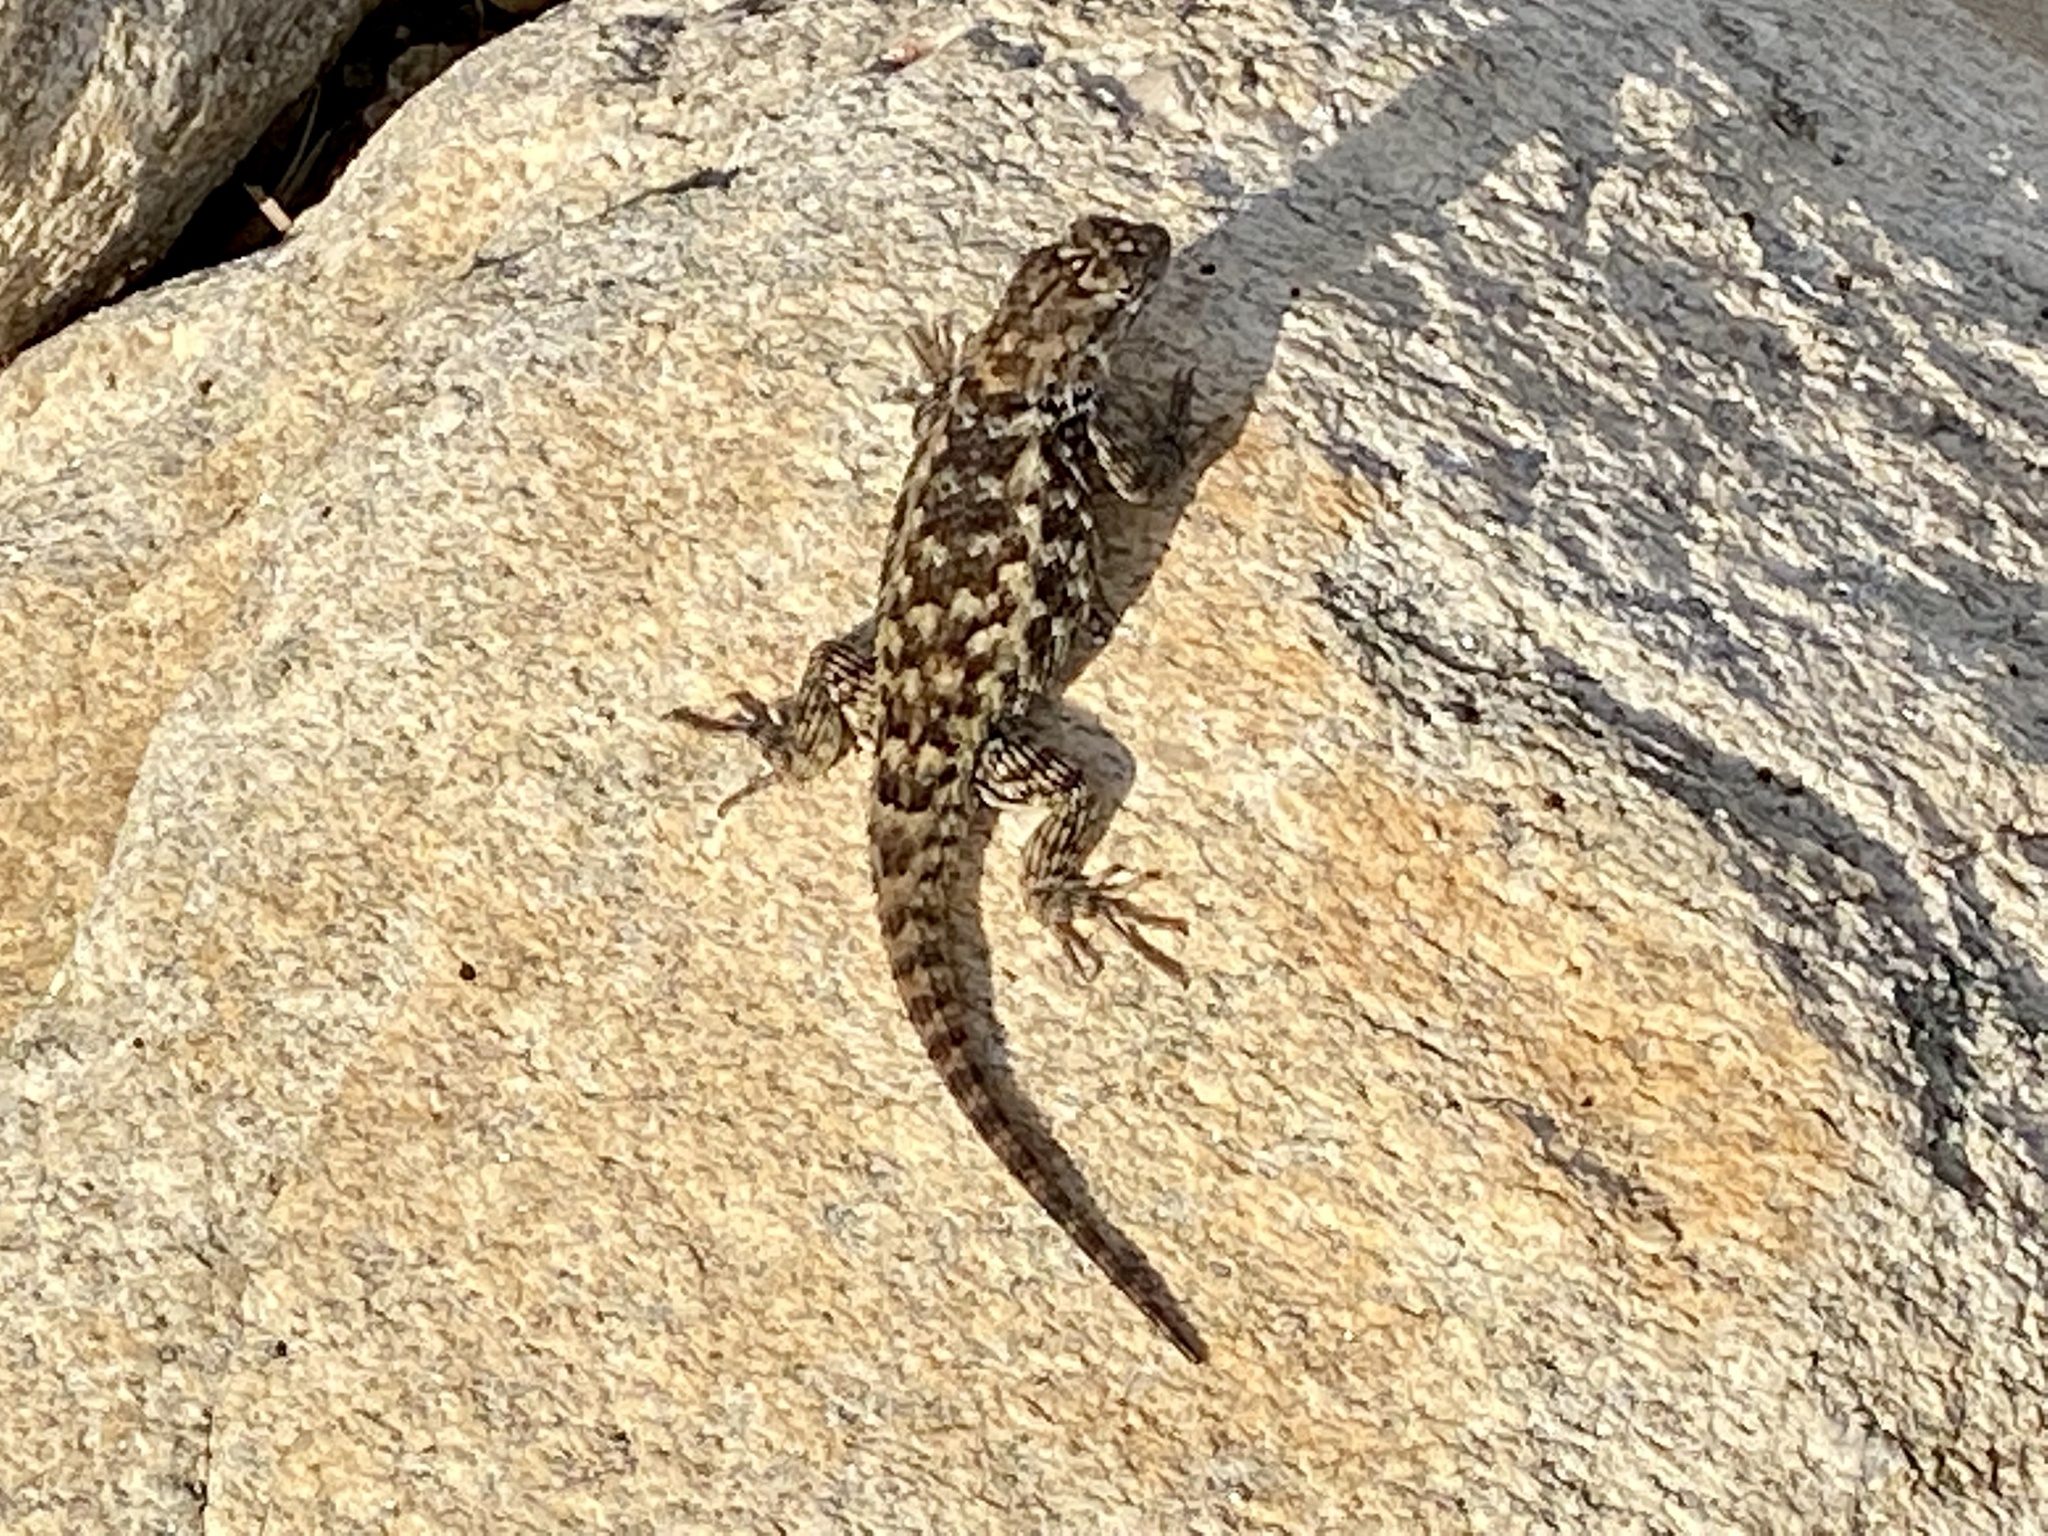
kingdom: Animalia
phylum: Chordata
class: Squamata
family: Phrynosomatidae
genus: Sceloporus
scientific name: Sceloporus magister
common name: Desert spiny lizard
